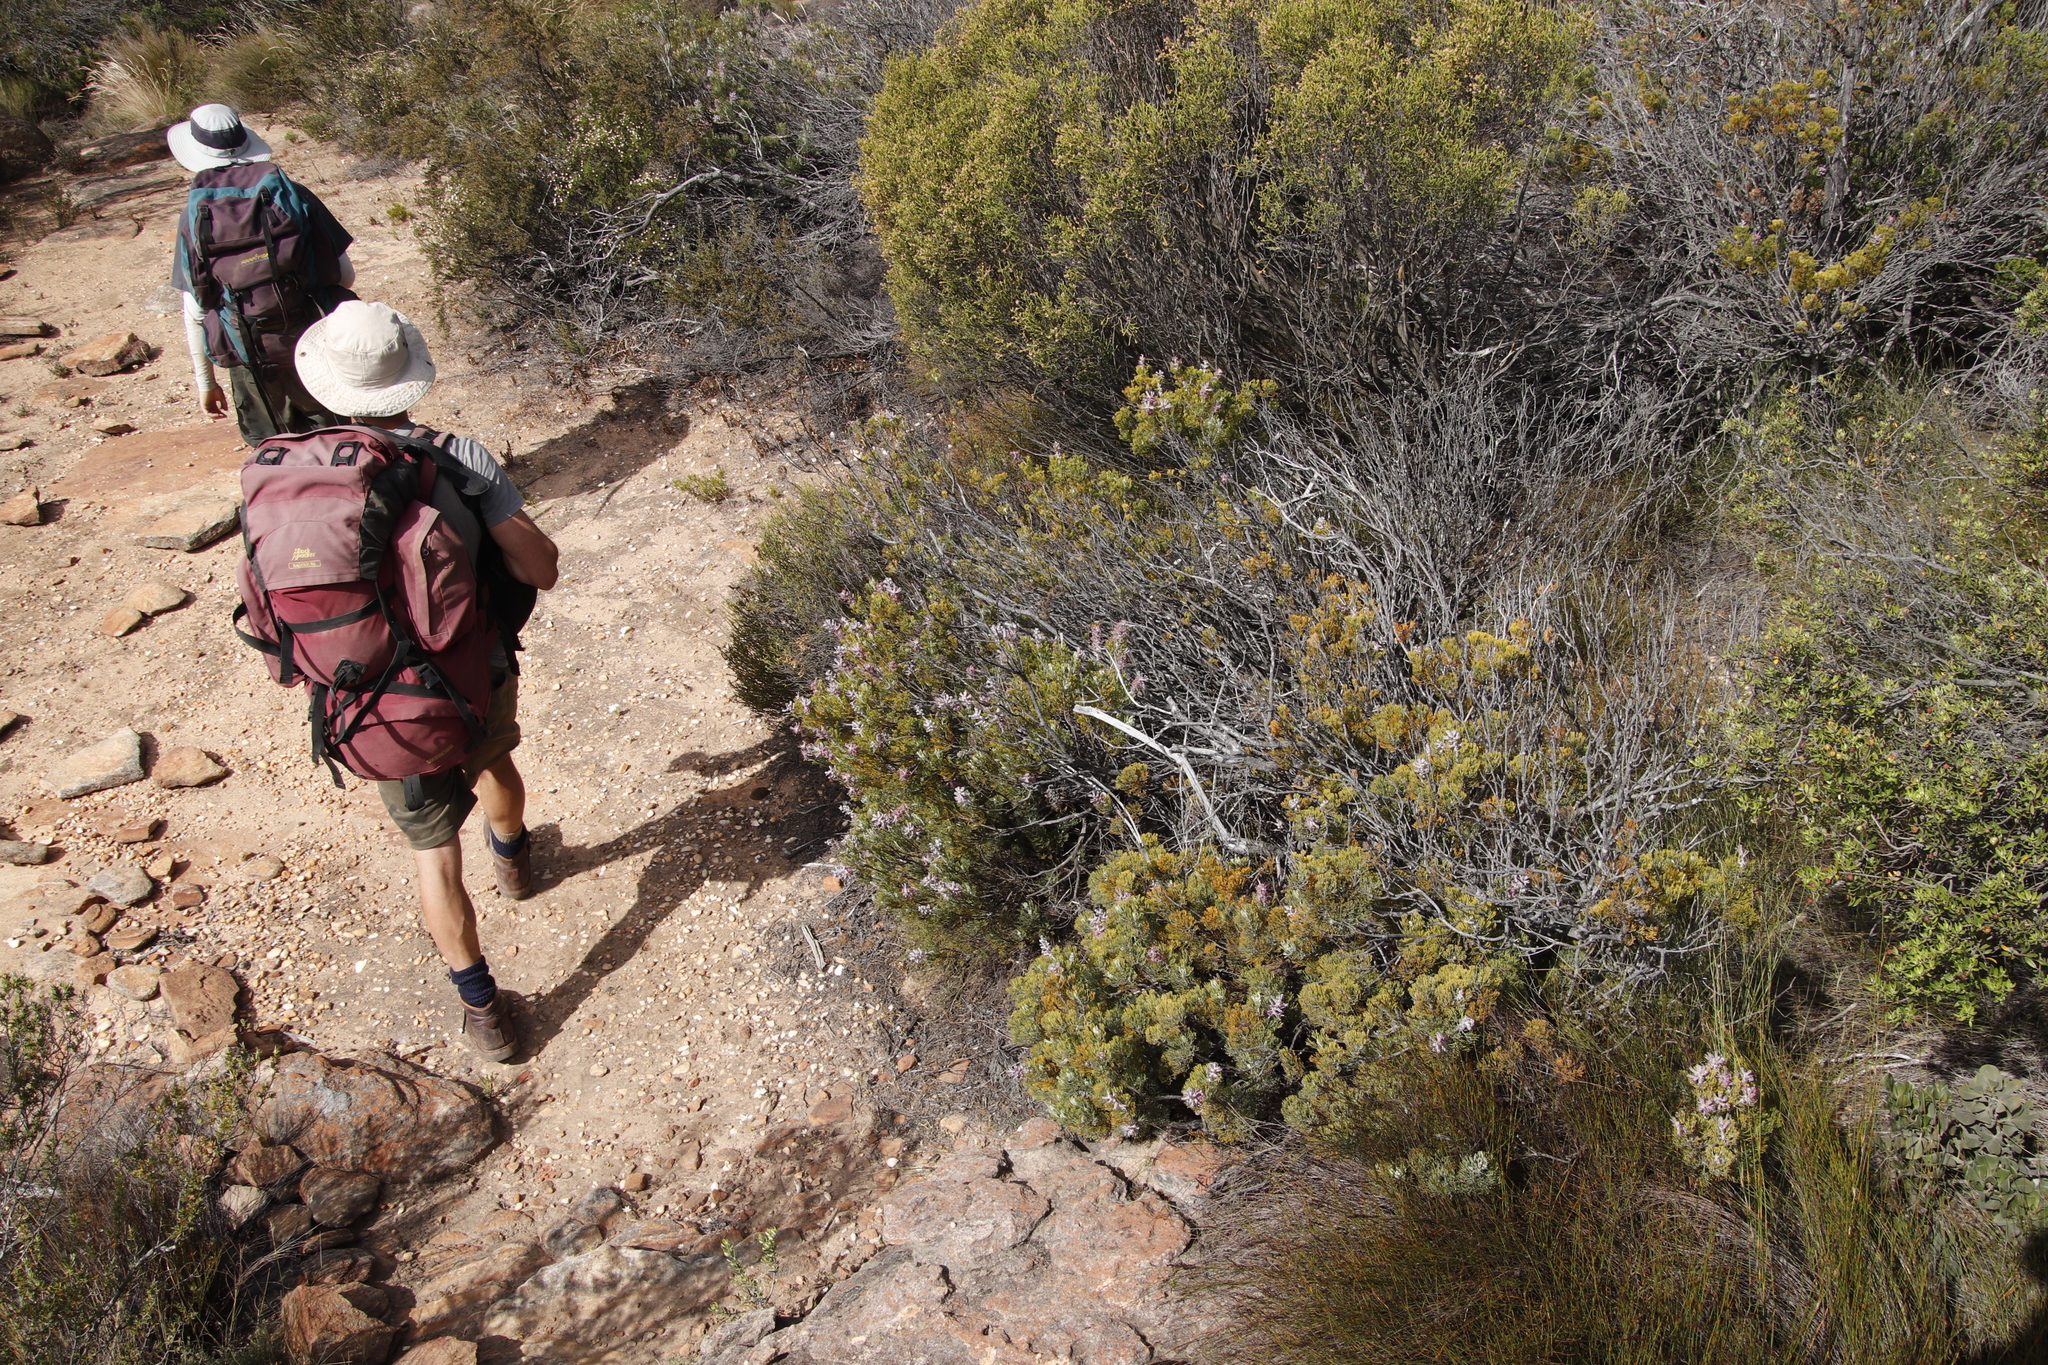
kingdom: Plantae
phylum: Tracheophyta
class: Magnoliopsida
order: Proteales
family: Proteaceae
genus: Paranomus
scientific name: Paranomus bracteolaris
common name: Bokkeveld tree sceptre
